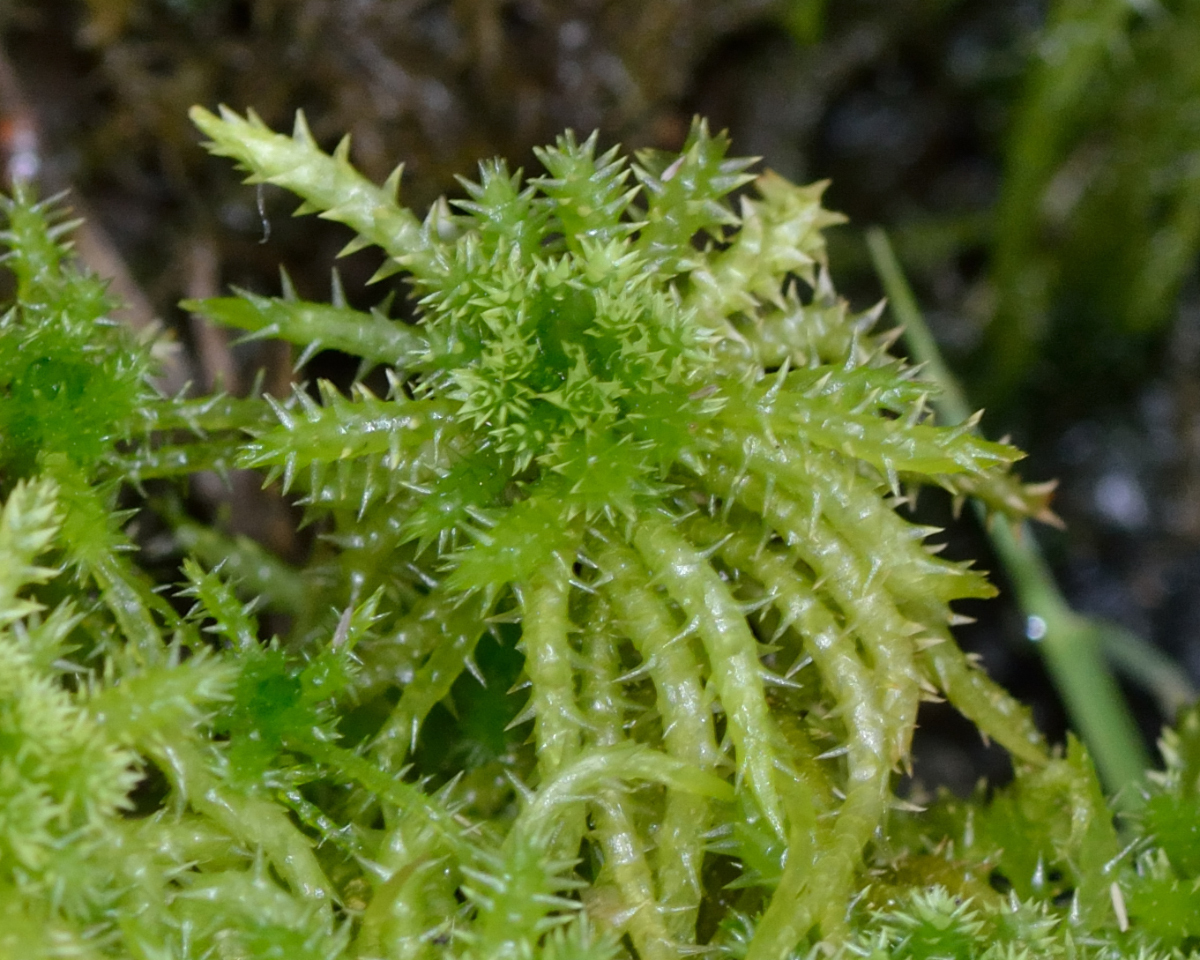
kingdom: Plantae
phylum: Bryophyta
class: Sphagnopsida
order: Sphagnales
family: Sphagnaceae
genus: Sphagnum
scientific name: Sphagnum squarrosum
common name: Shaggy peat moss
